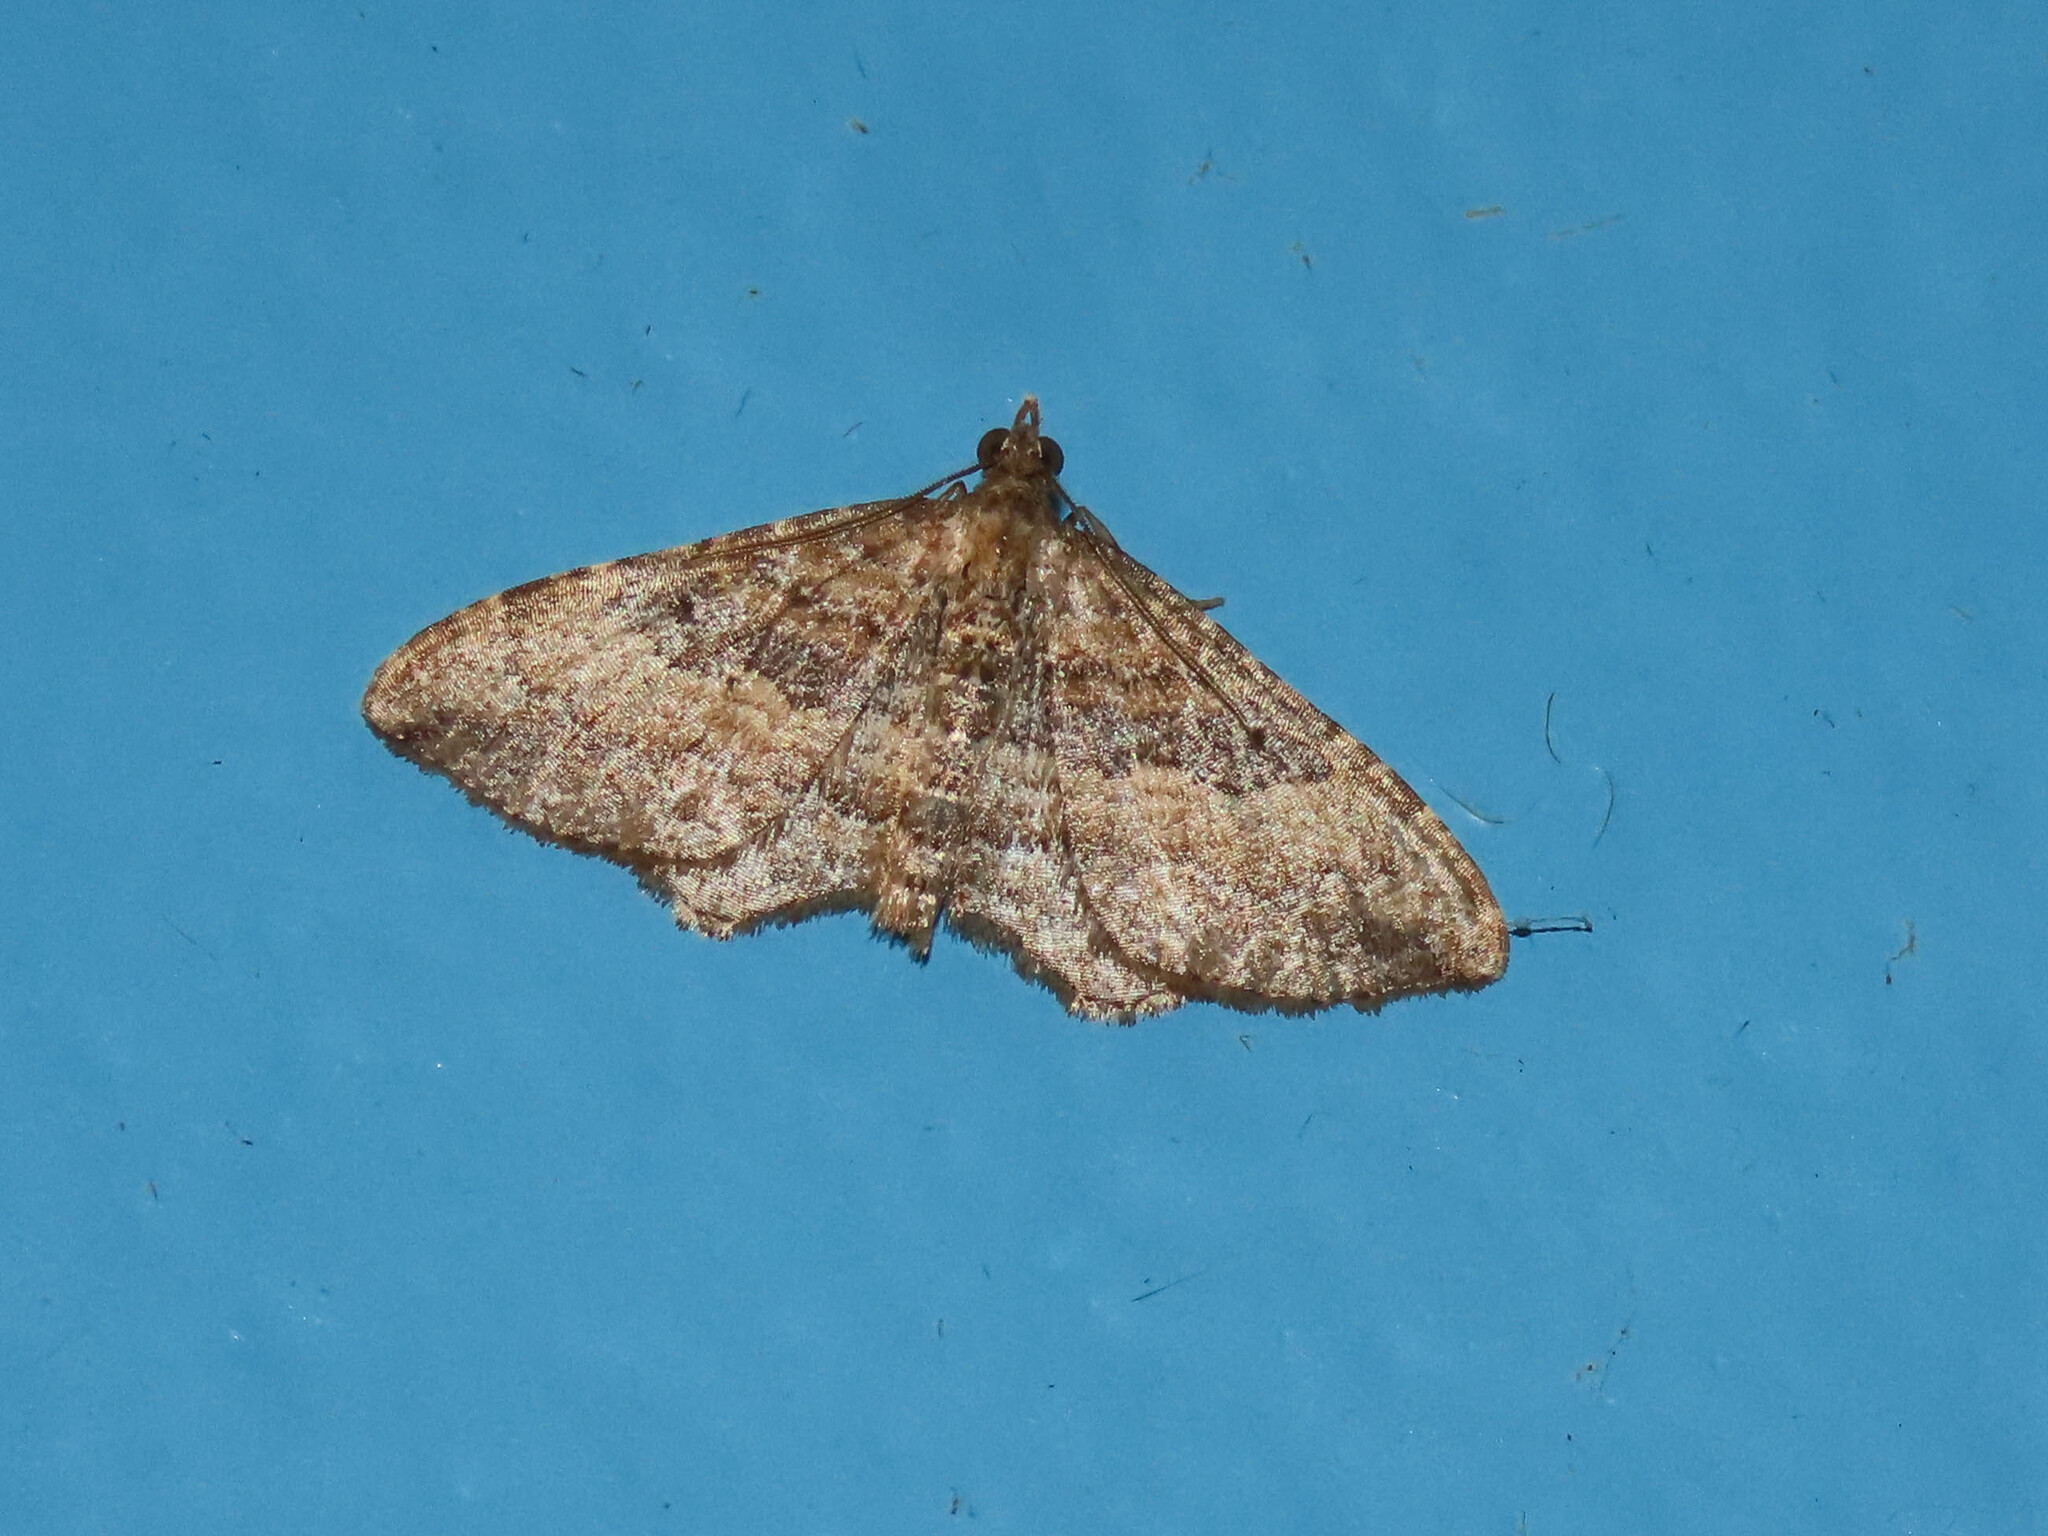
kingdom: Animalia
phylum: Arthropoda
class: Insecta
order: Lepidoptera
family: Geometridae
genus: Orthonama
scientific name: Orthonama obstipata
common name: The gem
